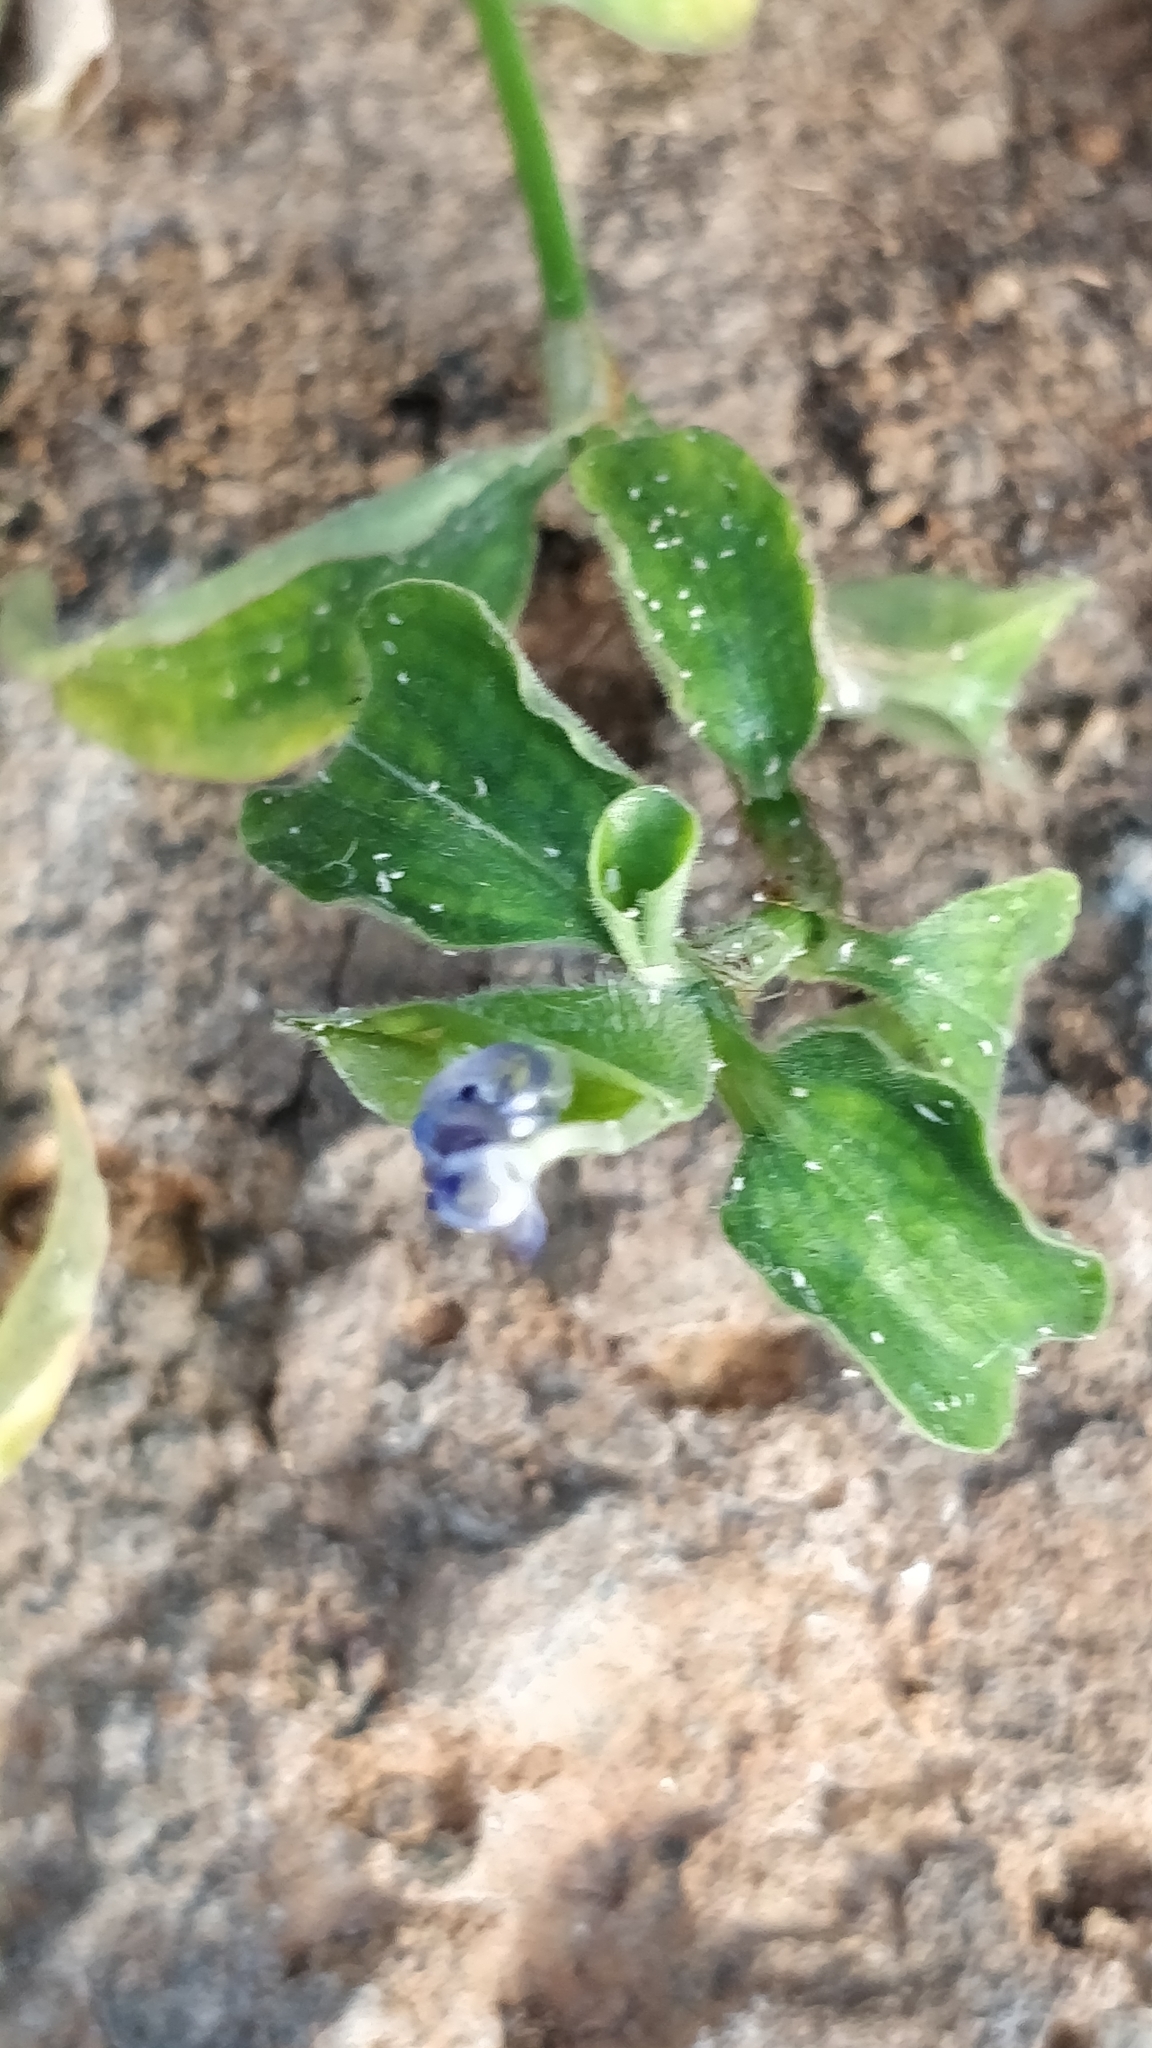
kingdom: Plantae
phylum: Tracheophyta
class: Liliopsida
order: Commelinales
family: Commelinaceae
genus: Commelina
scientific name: Commelina benghalensis
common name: Jio
